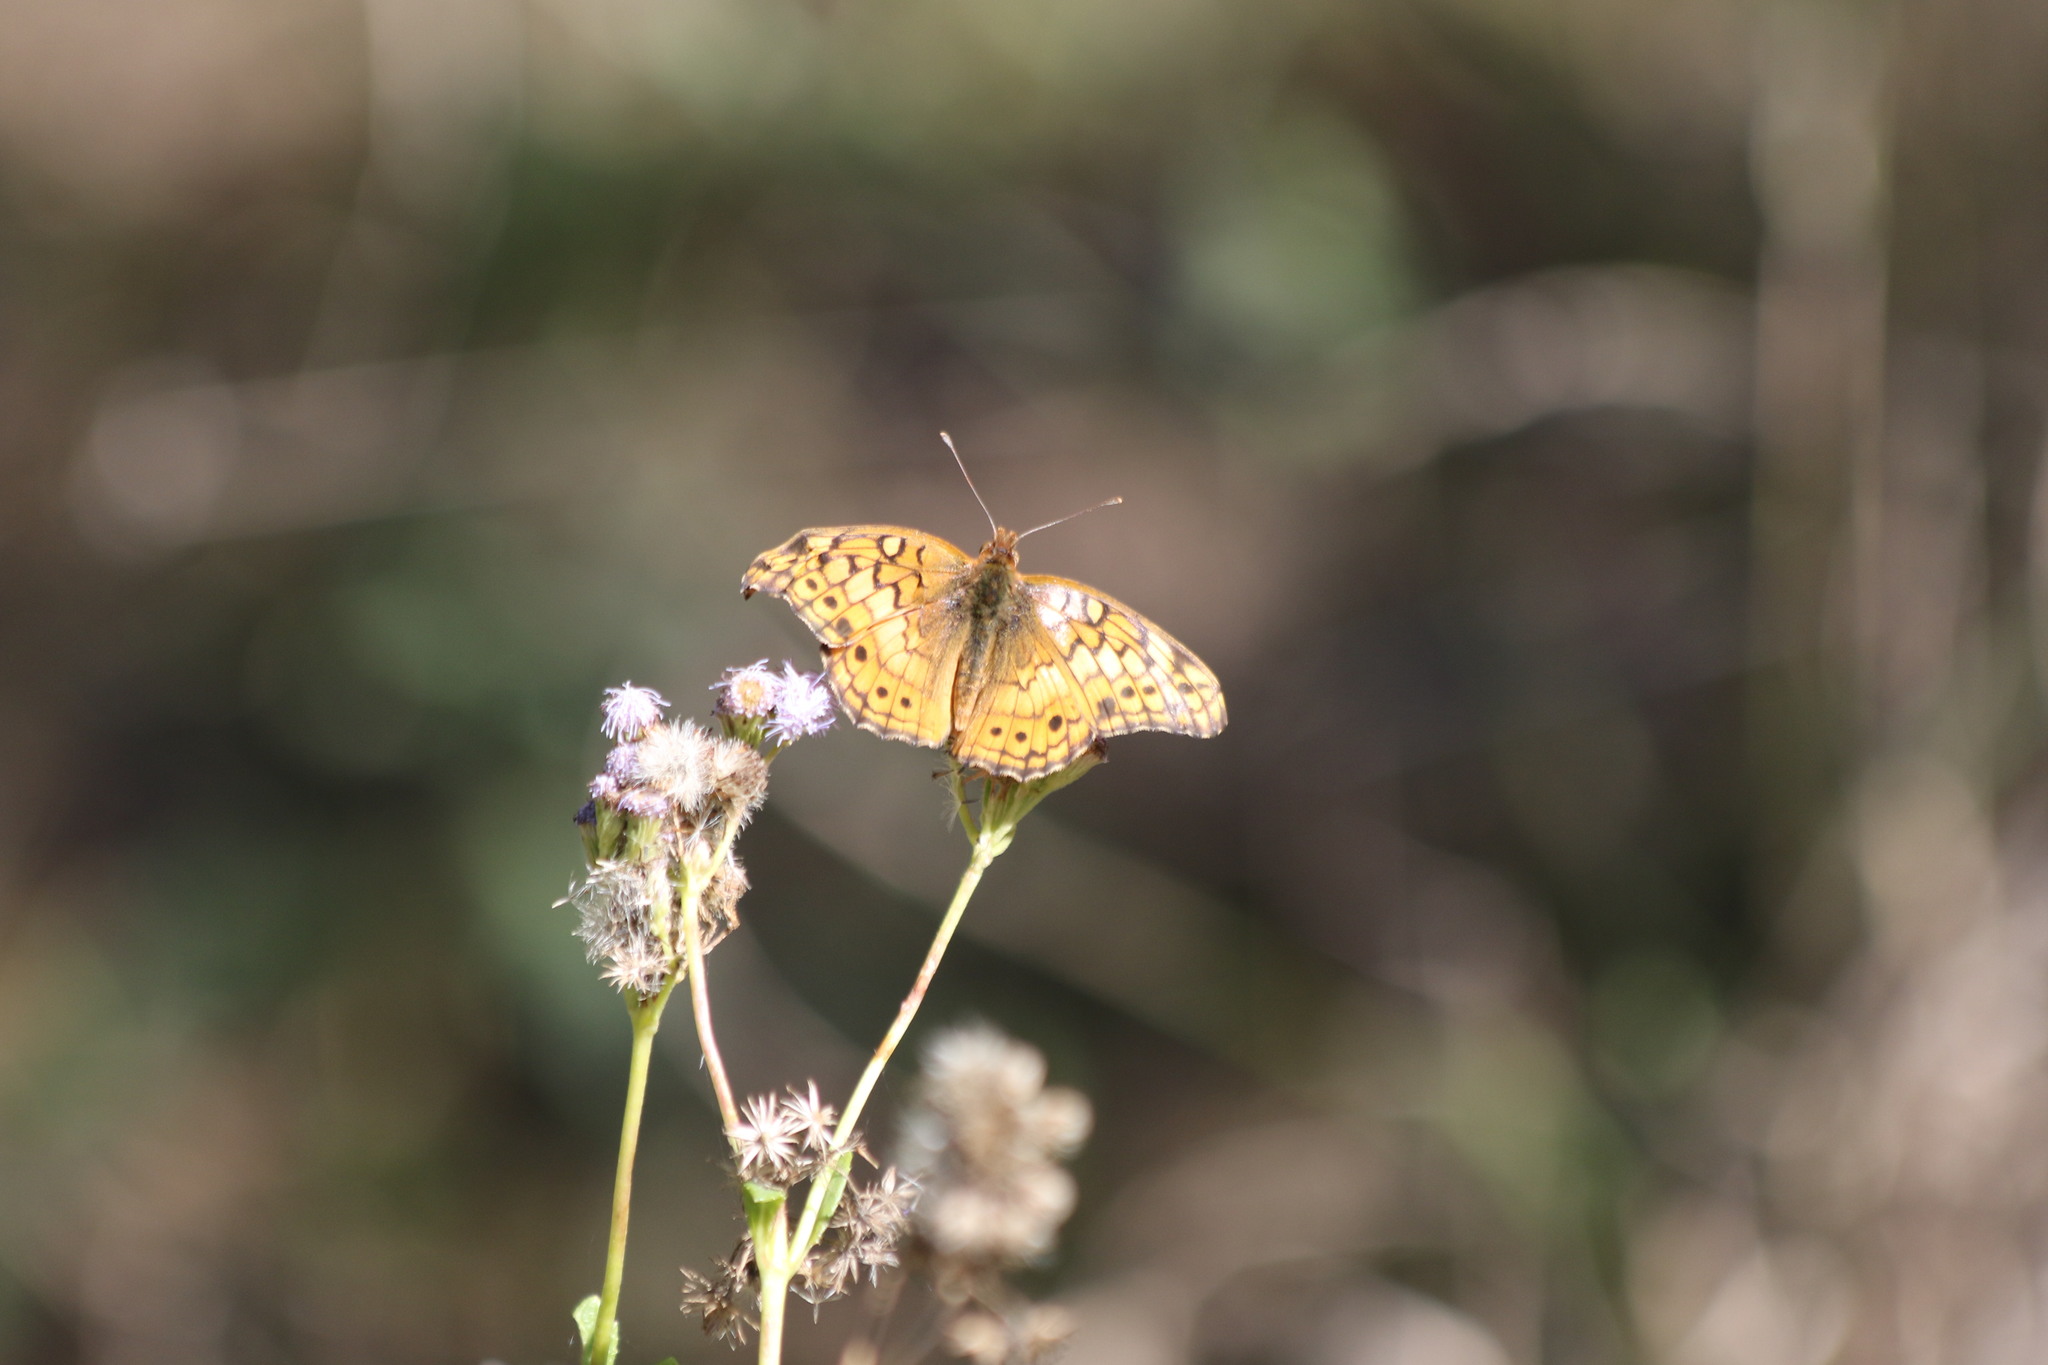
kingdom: Animalia
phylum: Arthropoda
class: Insecta
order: Lepidoptera
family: Nymphalidae
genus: Euptoieta
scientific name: Euptoieta claudia
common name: Variegated fritillary
